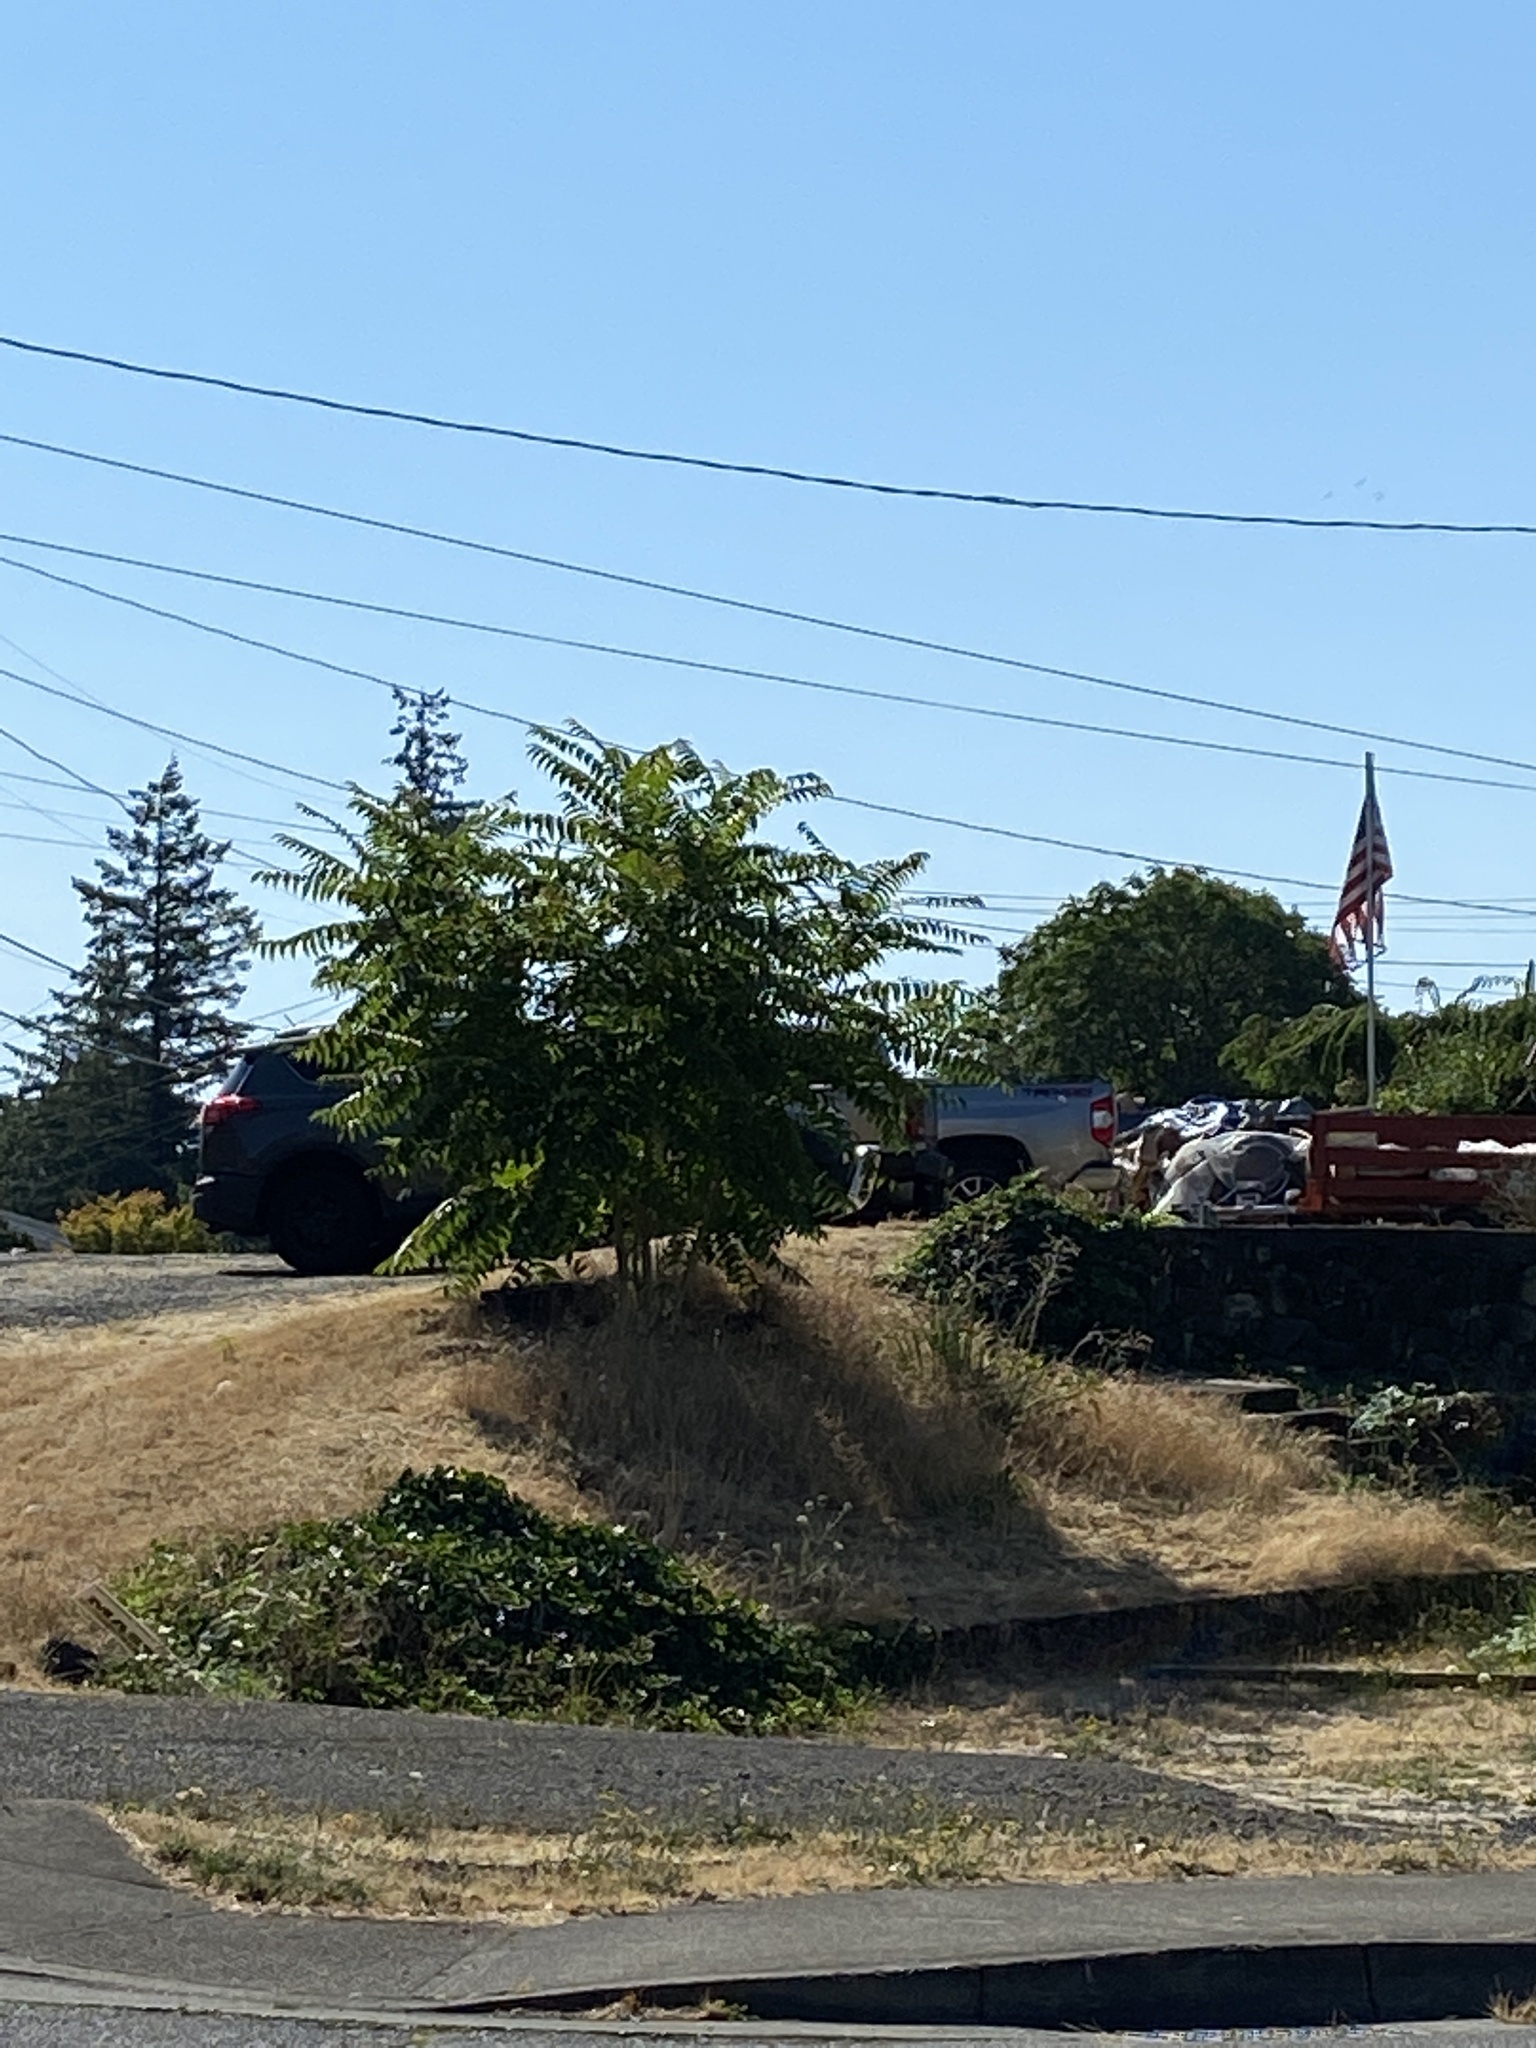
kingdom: Plantae
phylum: Tracheophyta
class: Magnoliopsida
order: Sapindales
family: Simaroubaceae
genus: Ailanthus
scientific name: Ailanthus altissima
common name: Tree-of-heaven
